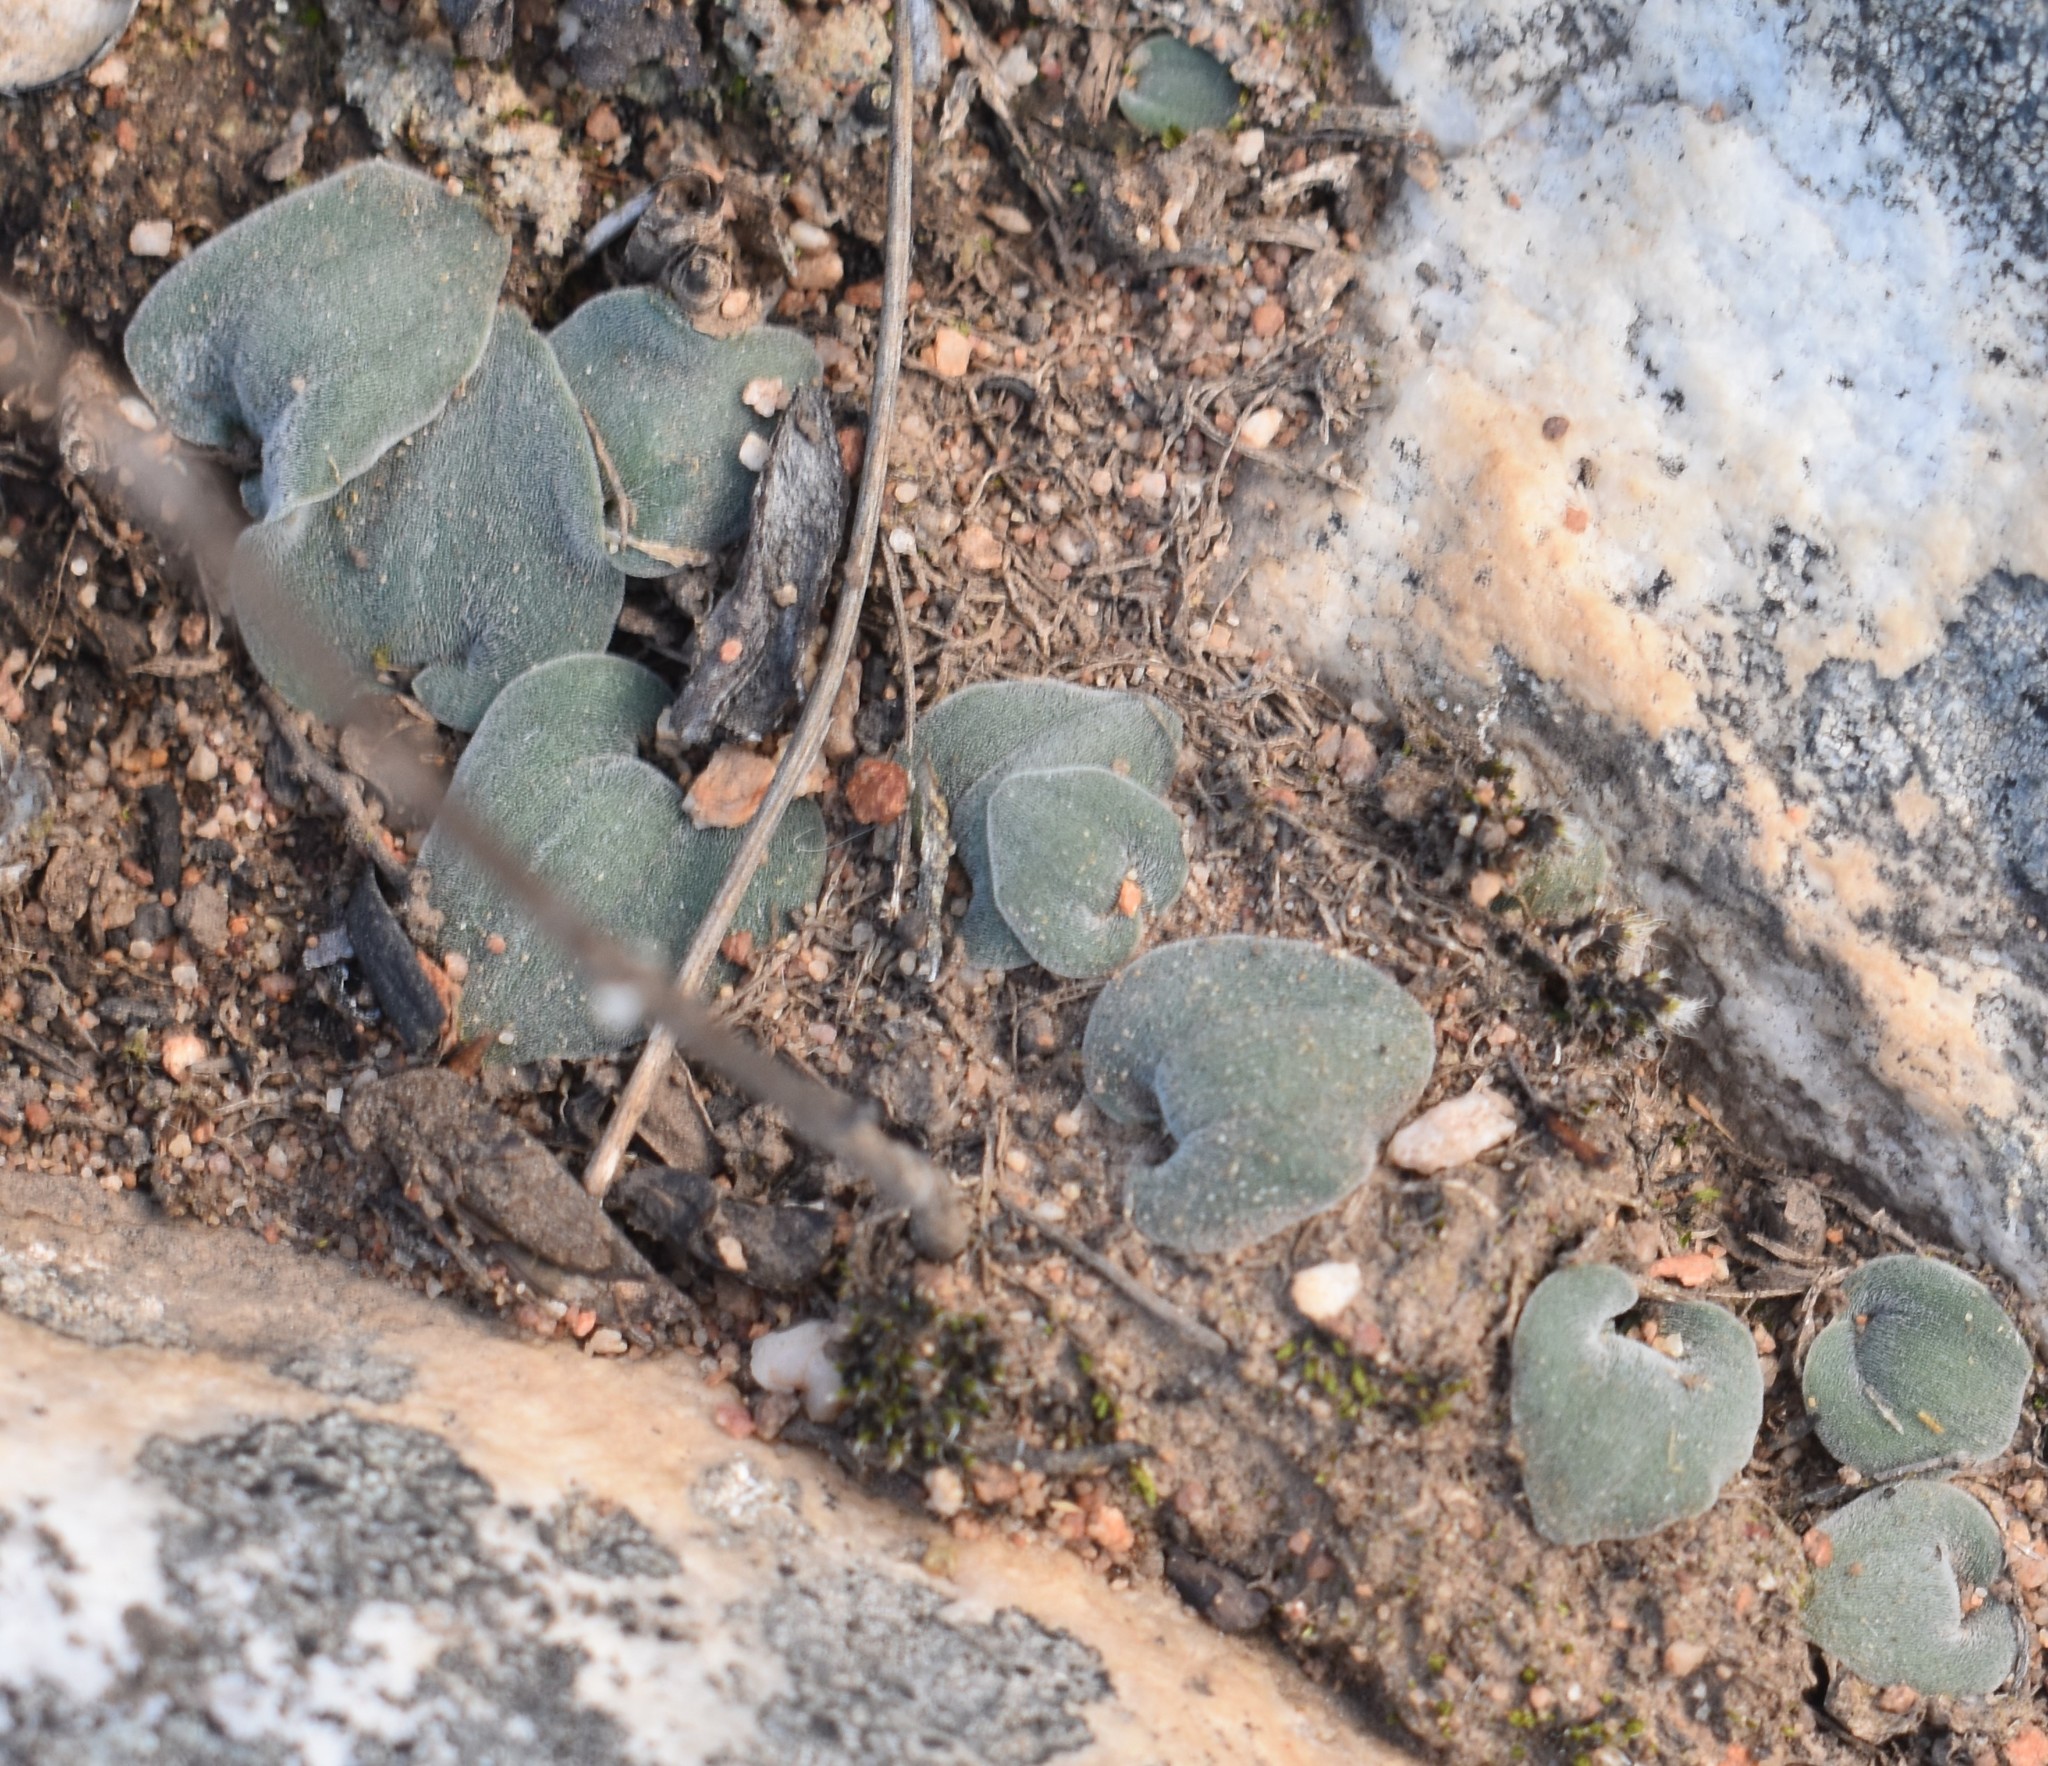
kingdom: Plantae
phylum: Tracheophyta
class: Liliopsida
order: Asparagales
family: Asparagaceae
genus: Drimia
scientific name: Drimia platyphylla
